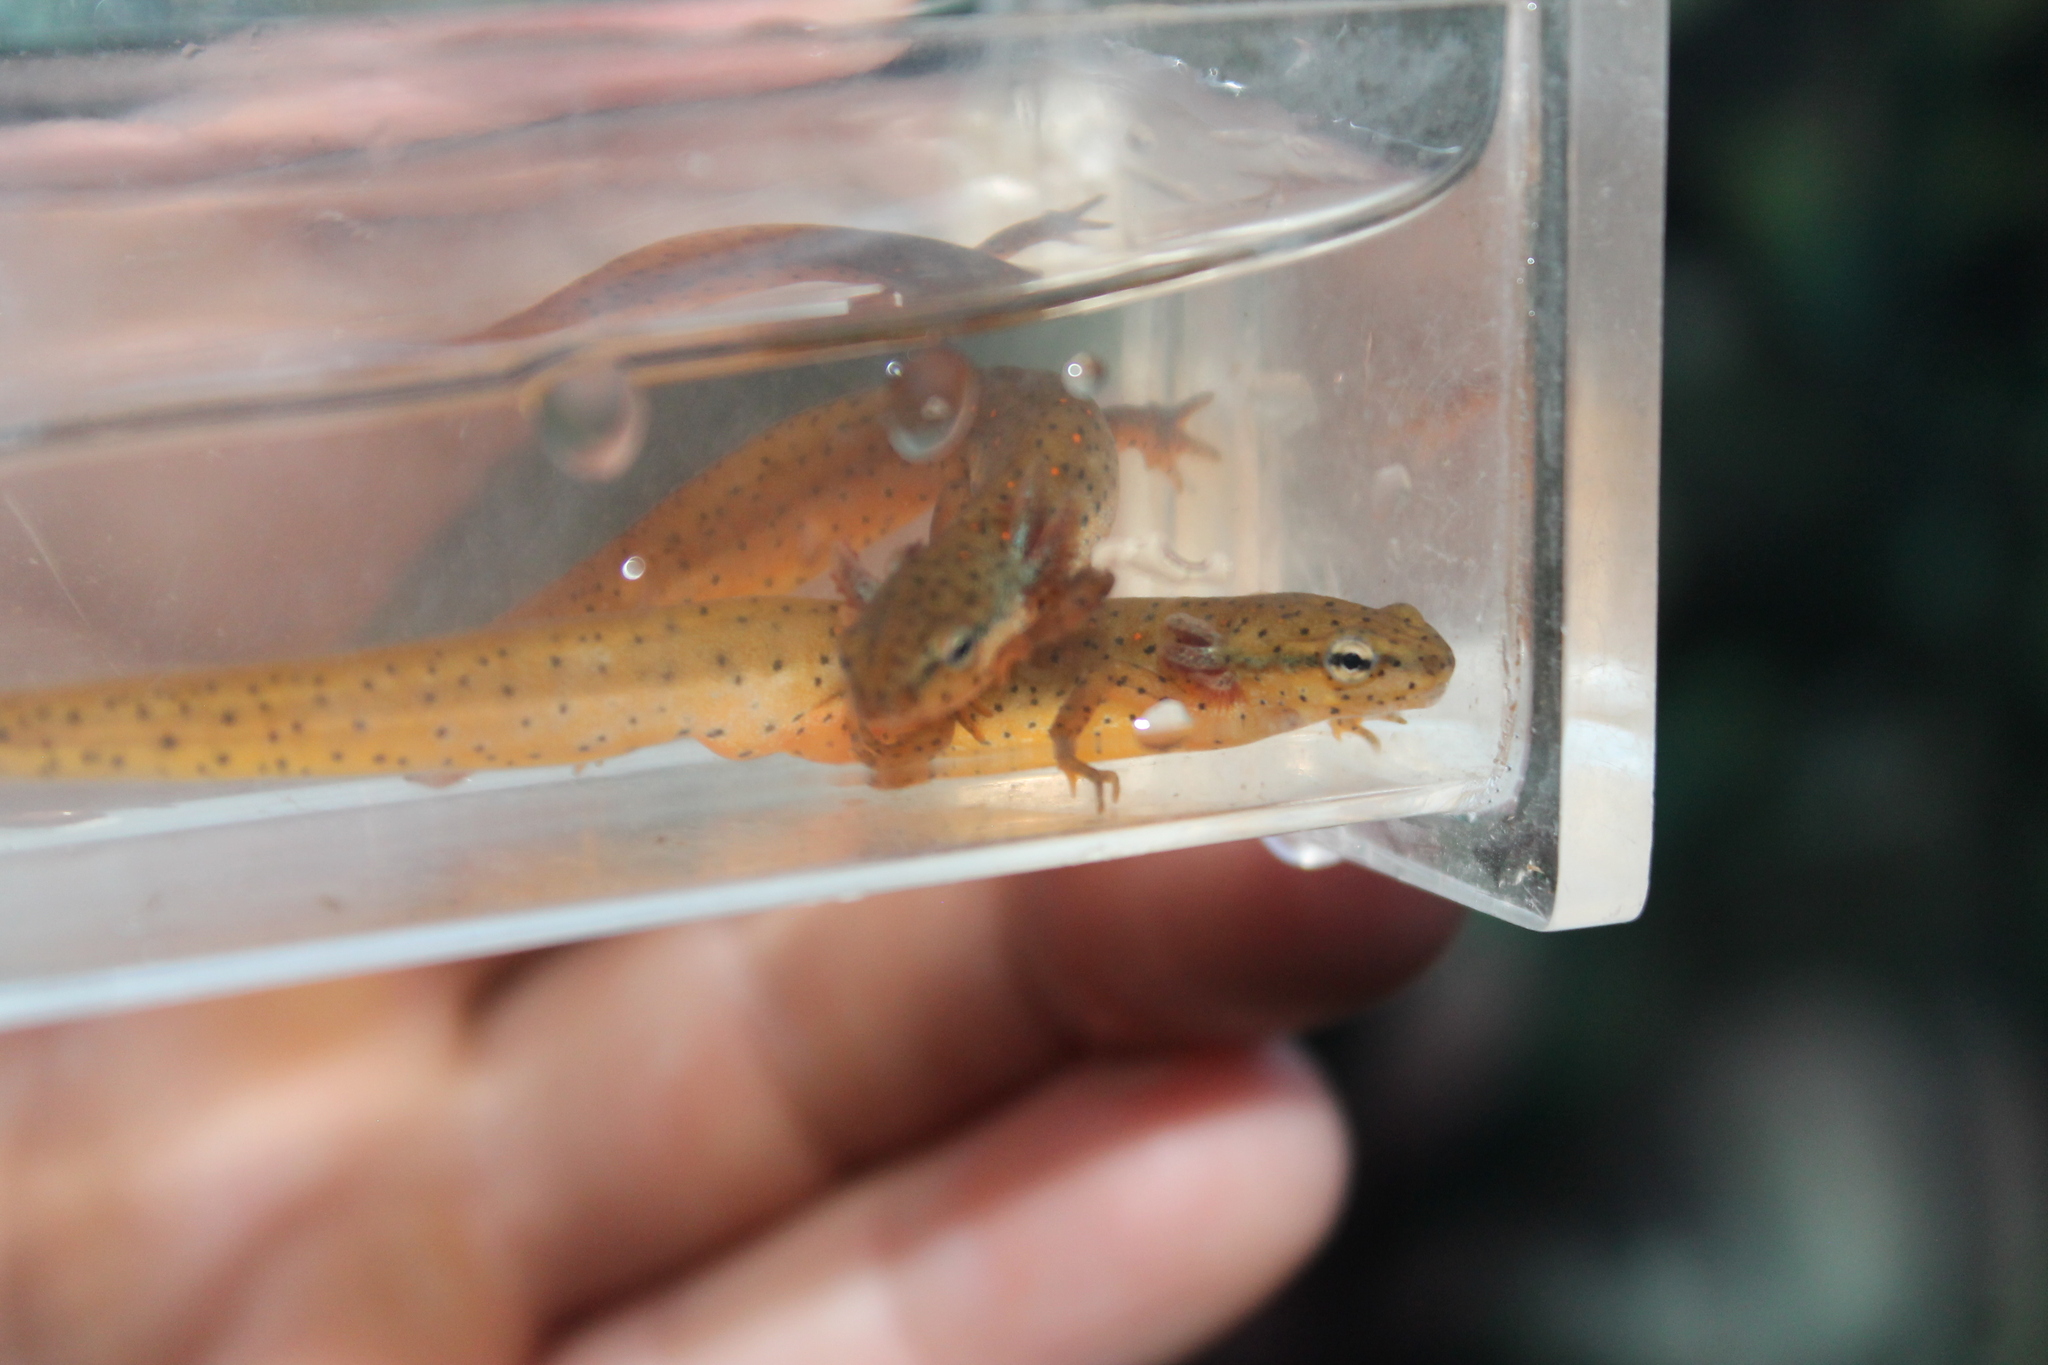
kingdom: Animalia
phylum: Chordata
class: Amphibia
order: Caudata
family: Salamandridae
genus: Notophthalmus
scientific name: Notophthalmus viridescens
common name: Eastern newt
